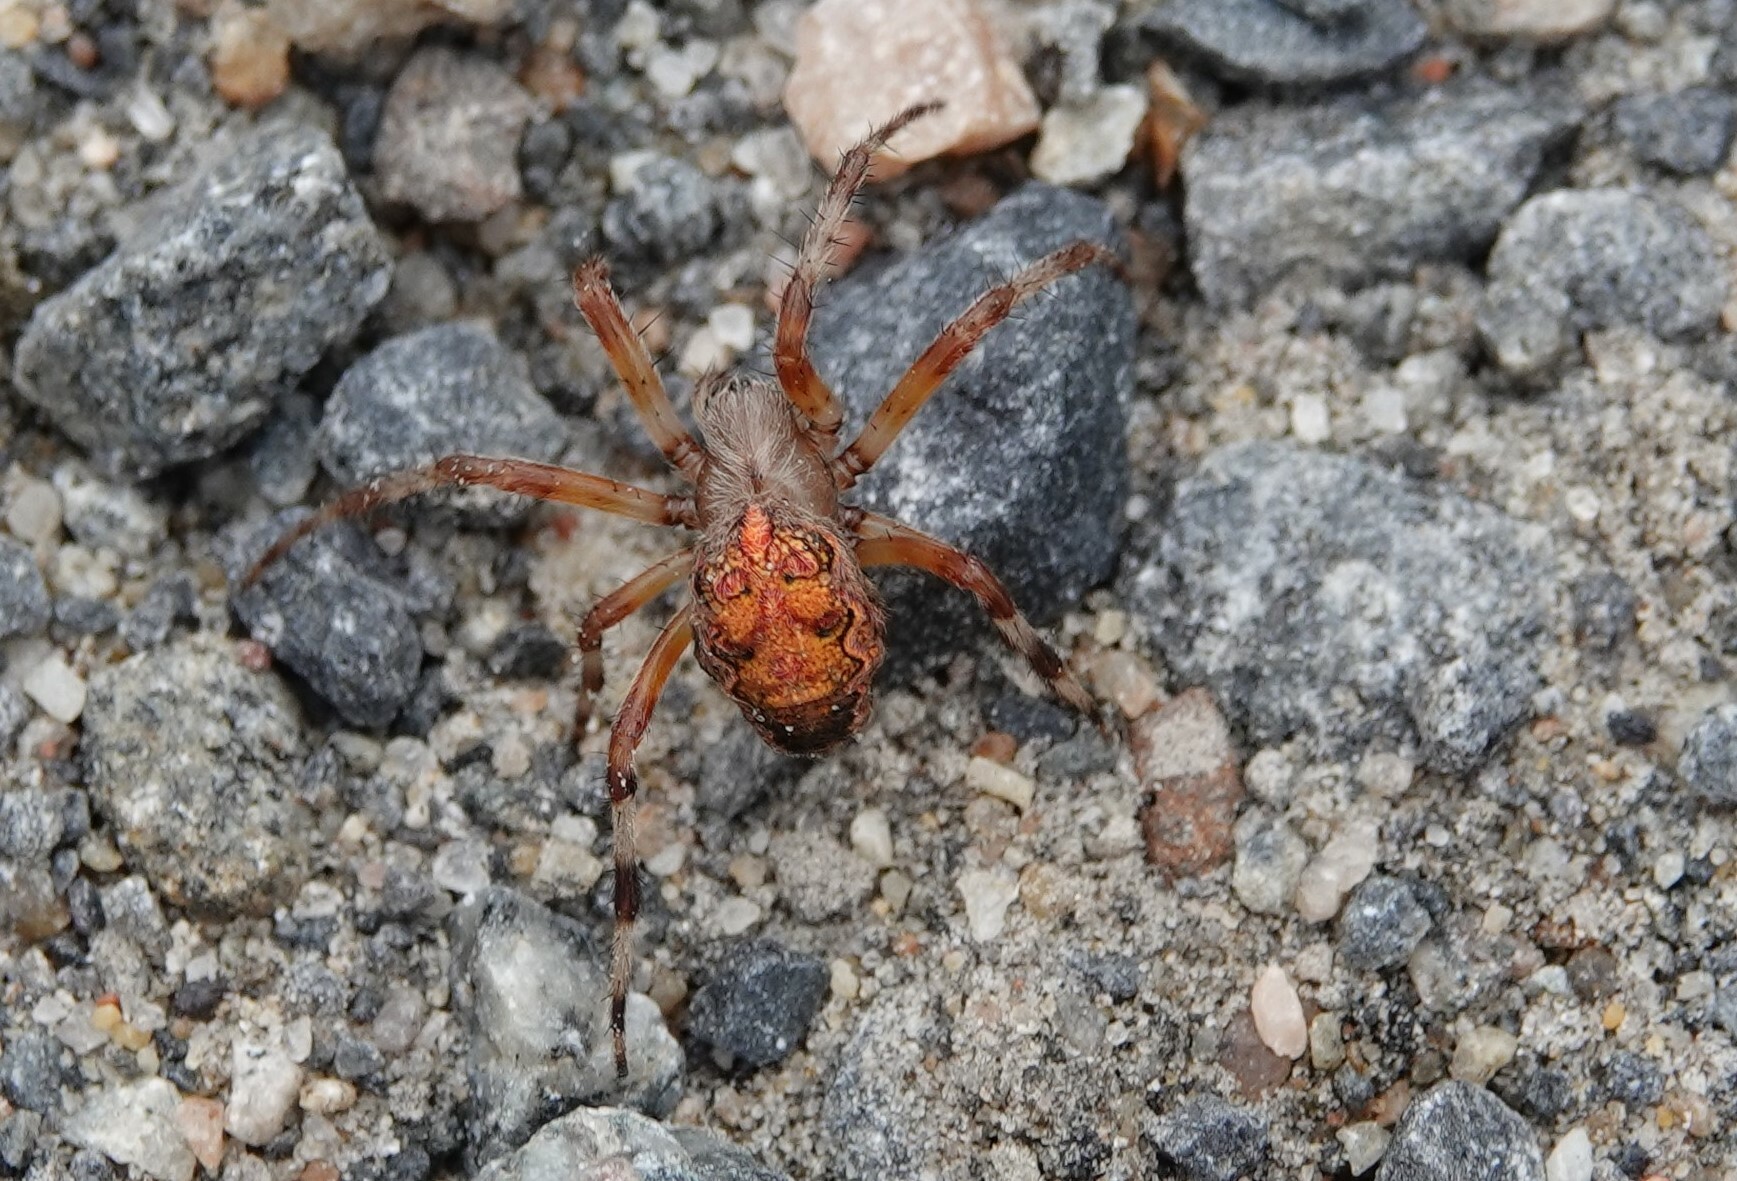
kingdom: Animalia
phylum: Arthropoda
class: Arachnida
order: Araneae
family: Araneidae
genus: Araneus
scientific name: Araneus marmoreus
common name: Marbled orbweaver
